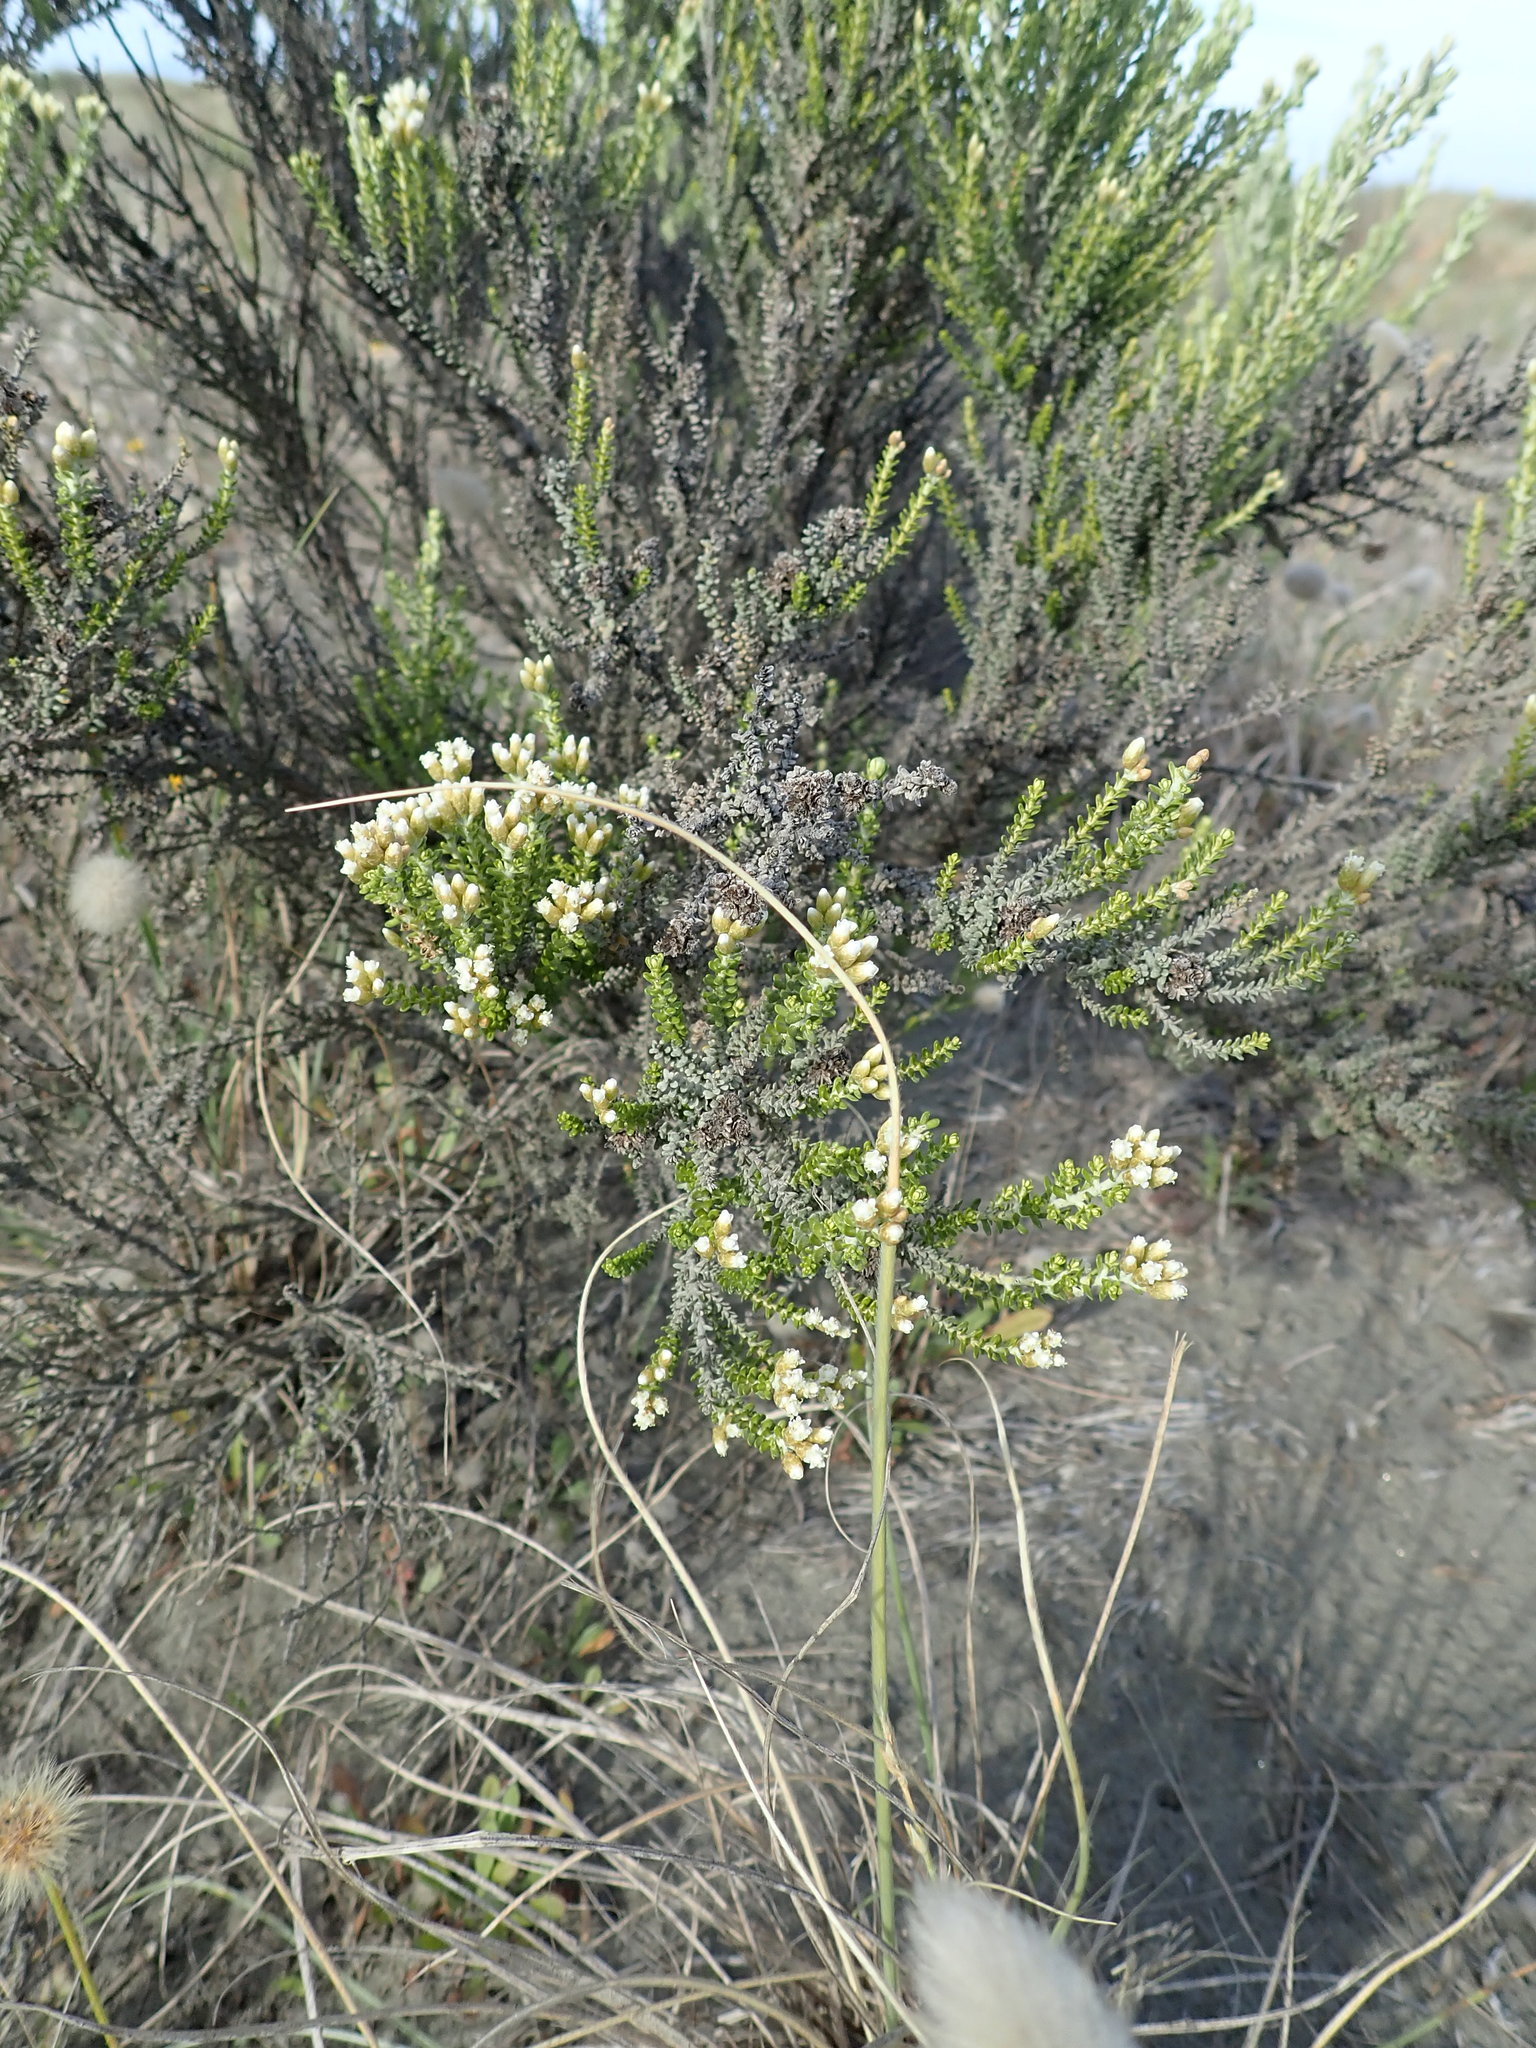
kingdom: Plantae
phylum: Tracheophyta
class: Magnoliopsida
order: Asterales
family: Asteraceae
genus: Ozothamnus
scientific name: Ozothamnus leptophyllus
